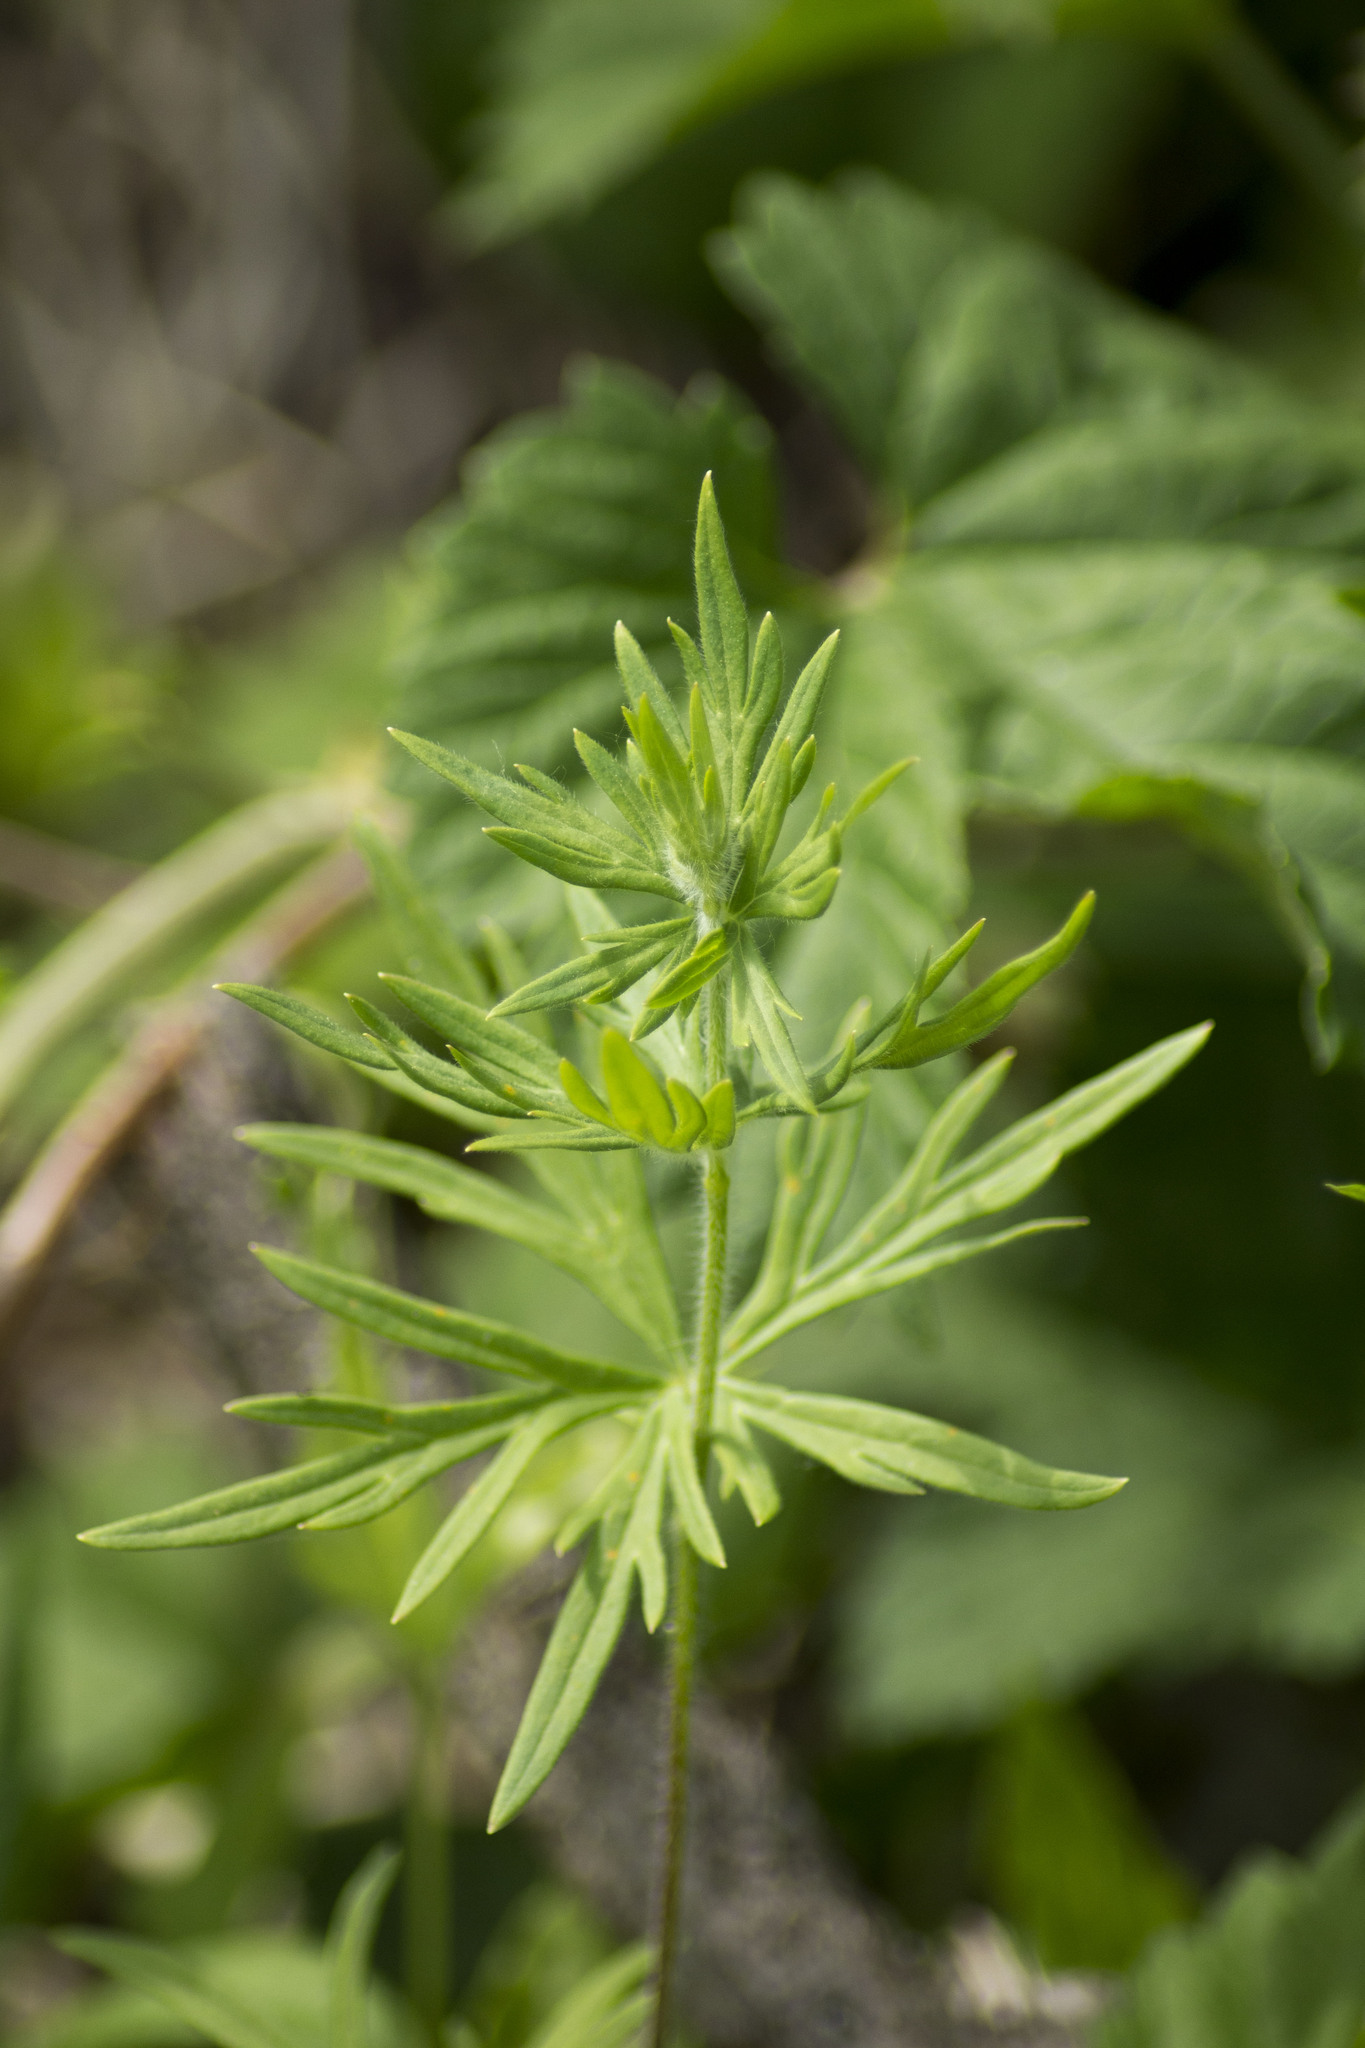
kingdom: Plantae
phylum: Tracheophyta
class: Magnoliopsida
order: Ranunculales
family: Ranunculaceae
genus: Aconitum
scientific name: Aconitum volubile
